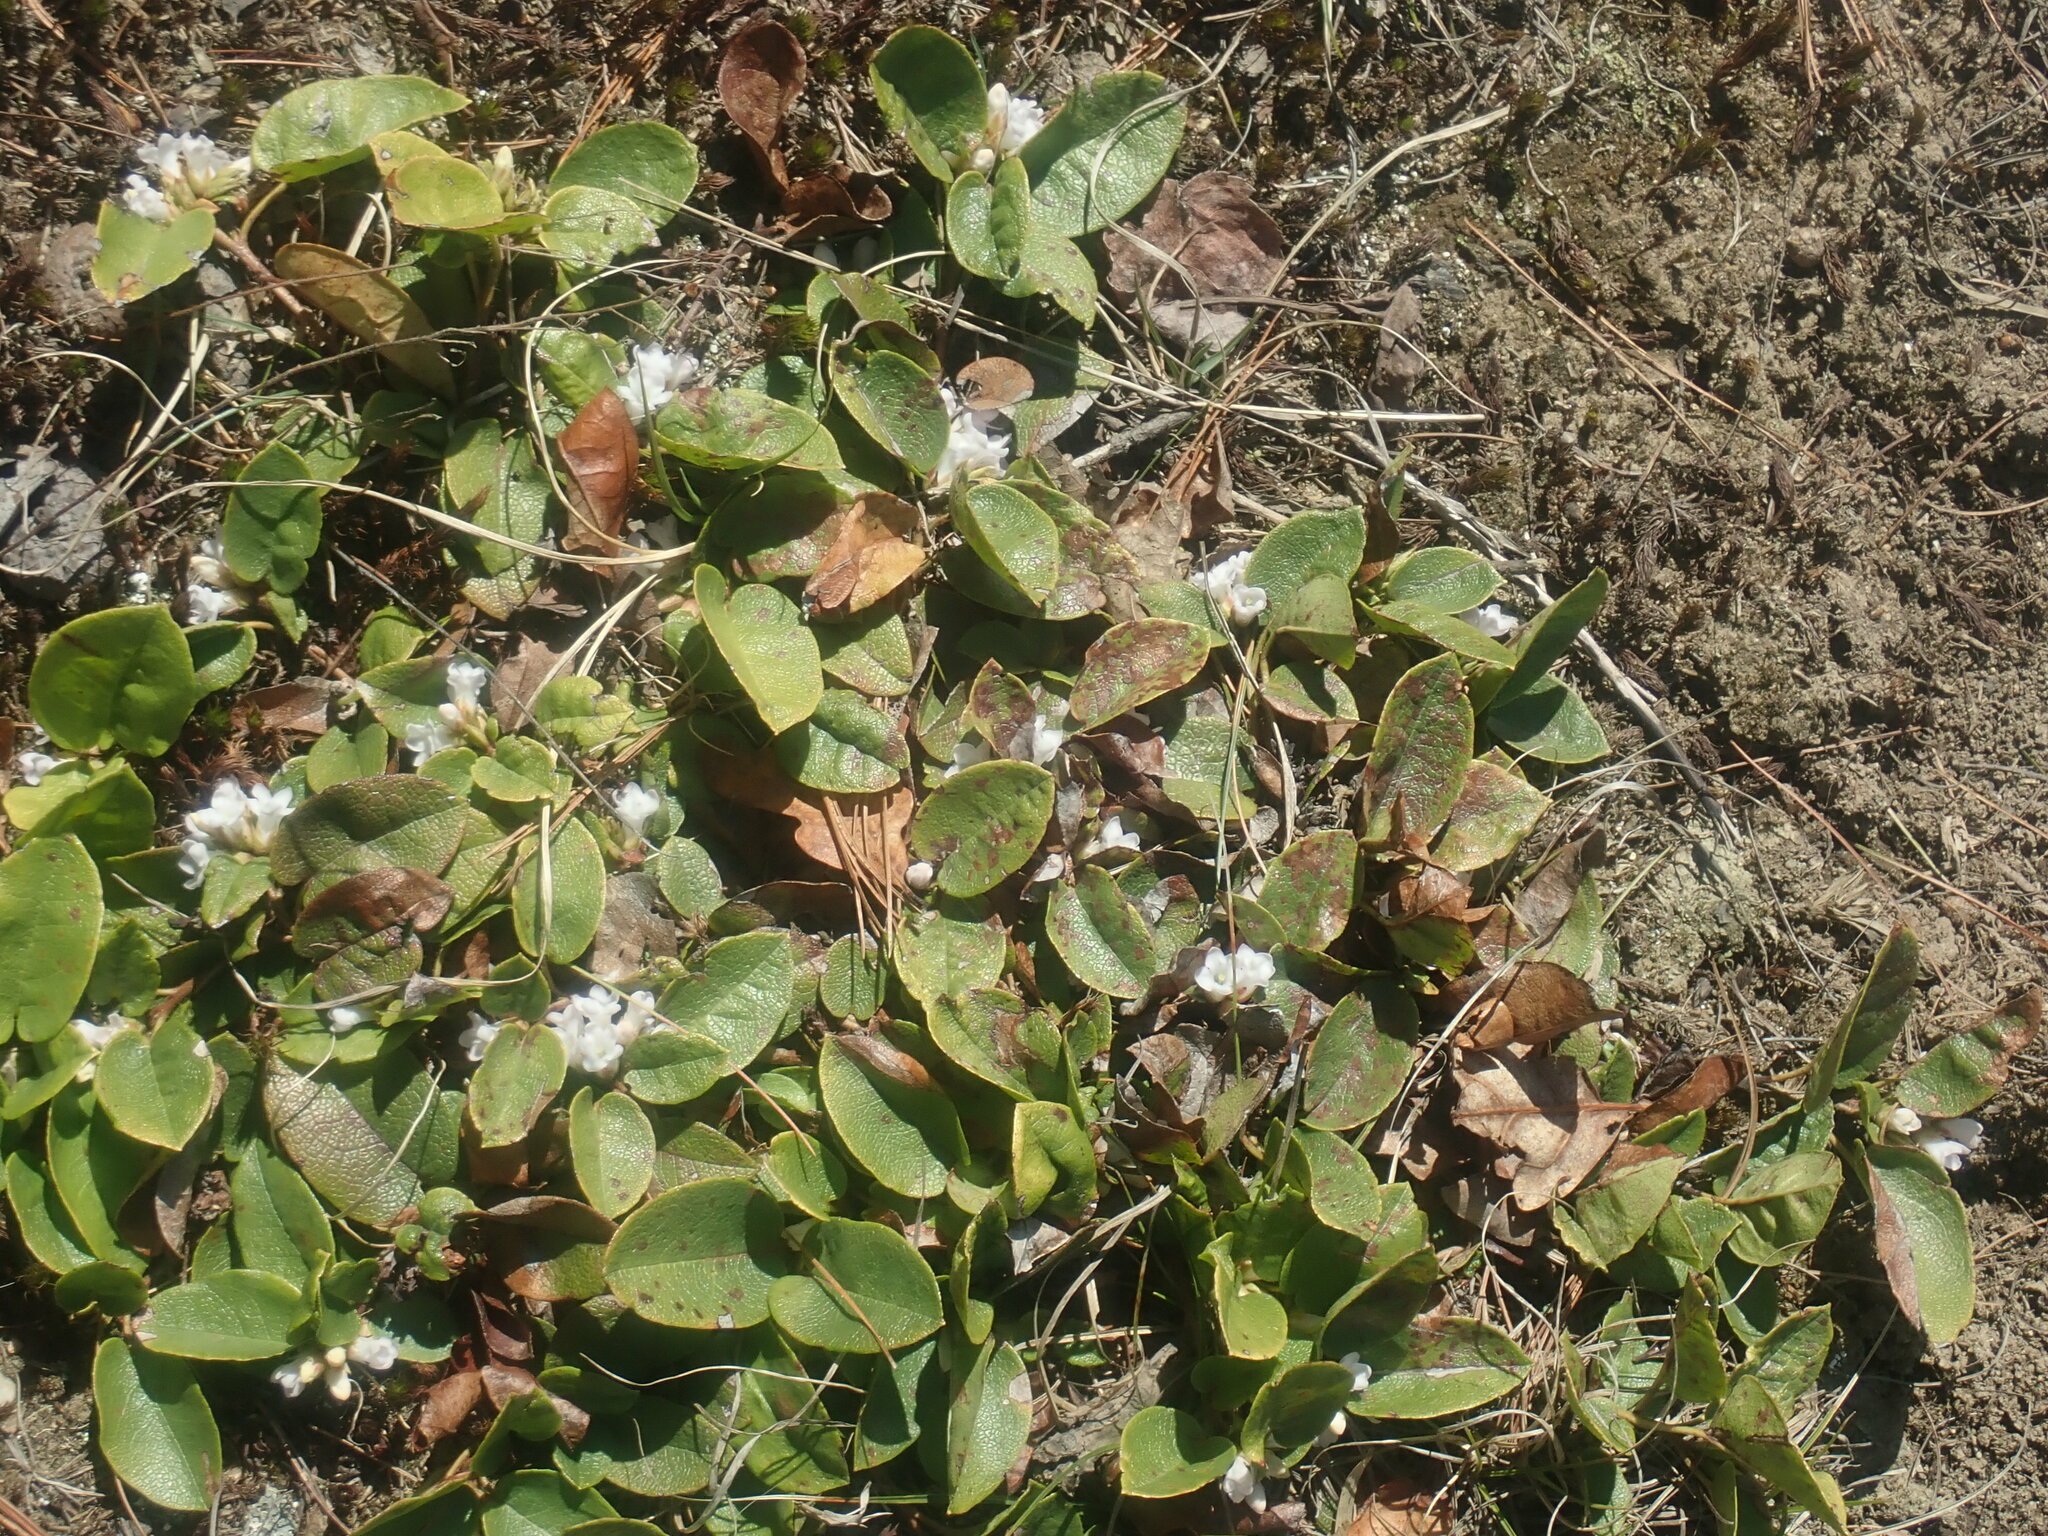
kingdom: Plantae
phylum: Tracheophyta
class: Magnoliopsida
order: Ericales
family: Ericaceae
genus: Epigaea
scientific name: Epigaea repens
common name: Gravelroot
